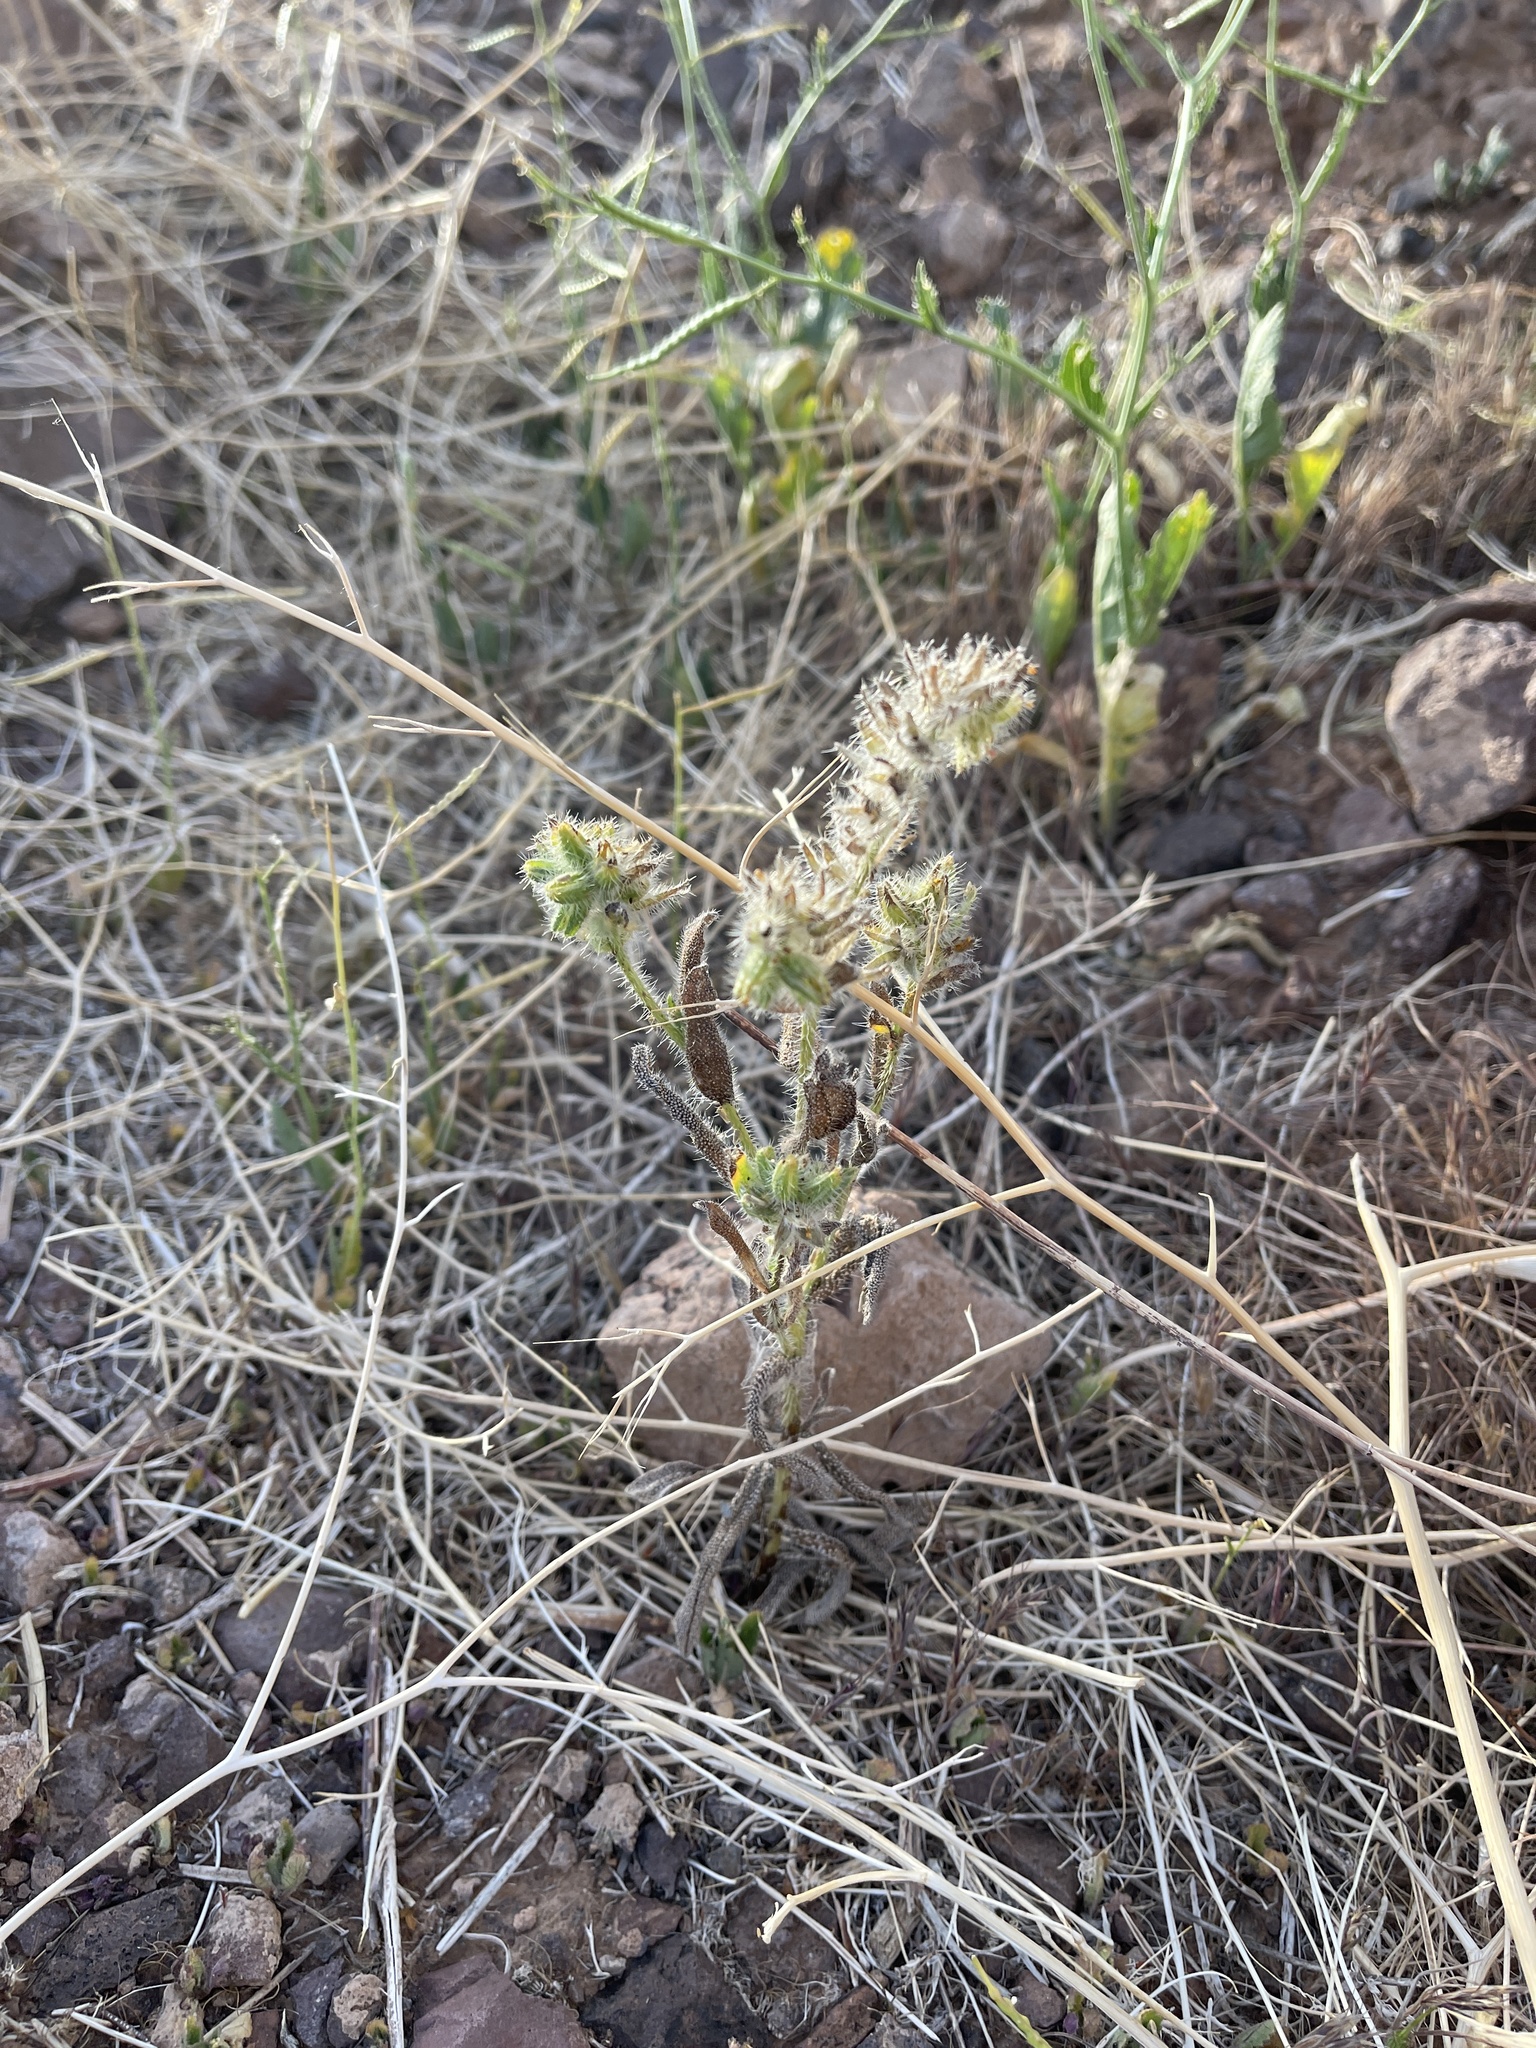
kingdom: Plantae
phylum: Tracheophyta
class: Magnoliopsida
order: Boraginales
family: Boraginaceae
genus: Amsinckia
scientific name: Amsinckia tessellata
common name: Tessellate fiddleneck
